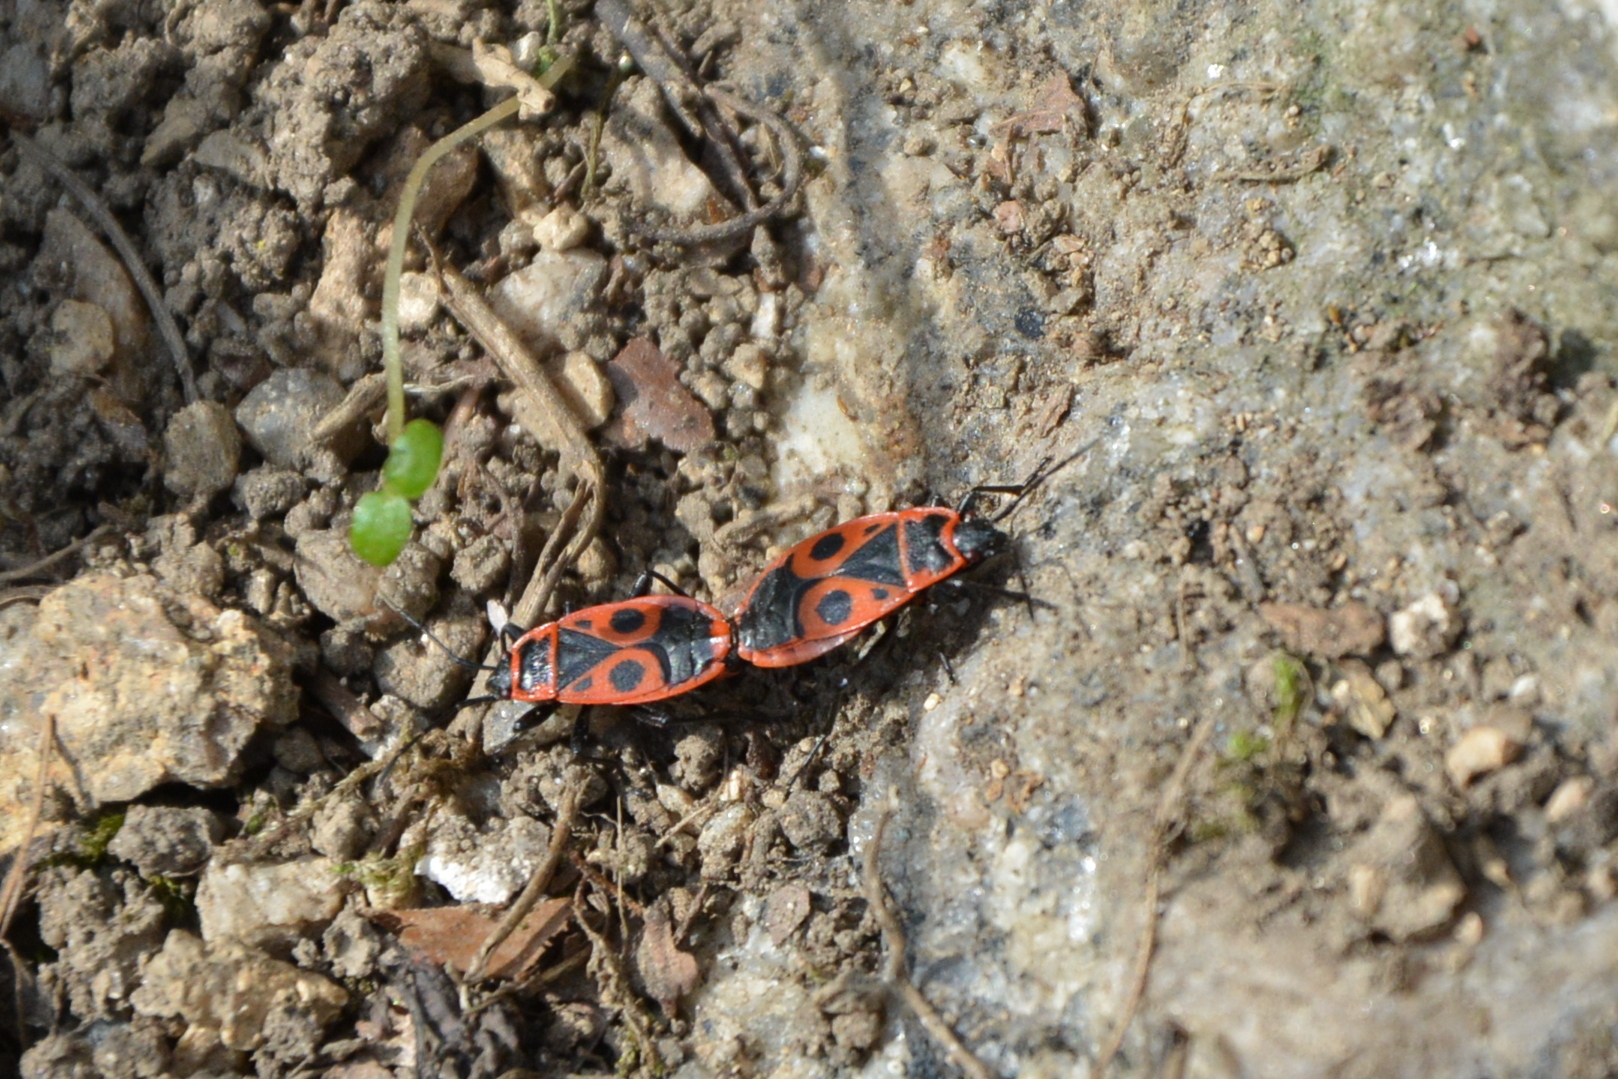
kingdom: Animalia
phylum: Arthropoda
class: Insecta
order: Hemiptera
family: Pyrrhocoridae
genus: Pyrrhocoris
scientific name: Pyrrhocoris apterus
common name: Firebug
